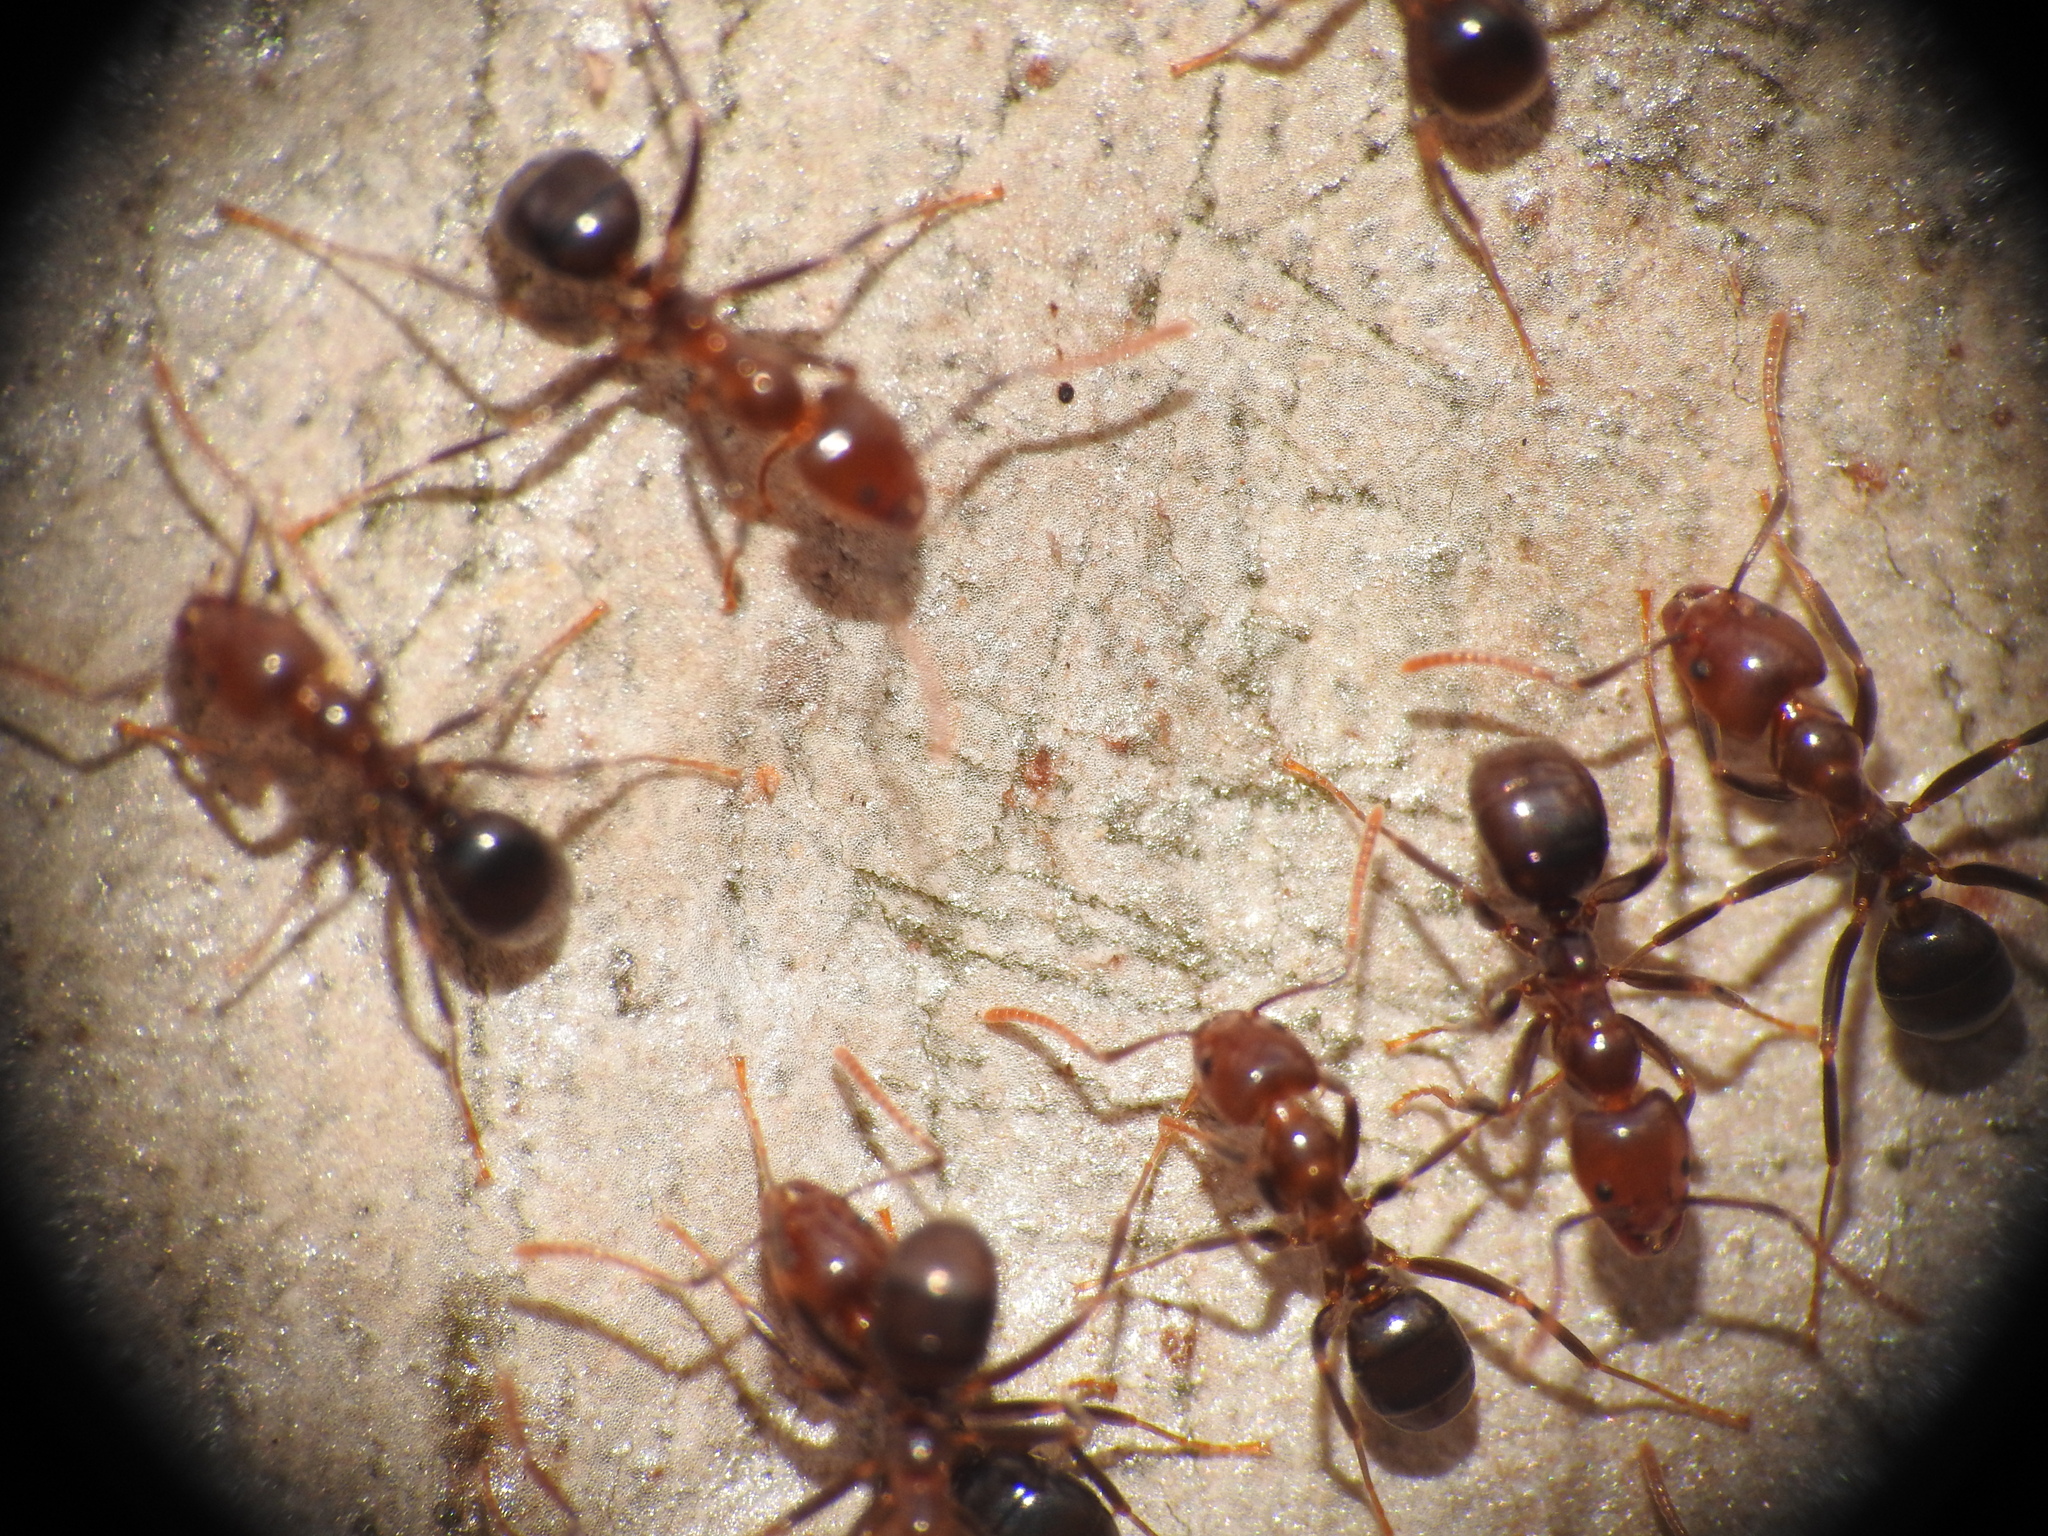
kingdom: Animalia
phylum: Arthropoda
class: Insecta
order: Hymenoptera
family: Formicidae
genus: Papyrius
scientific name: Papyrius nitidus
